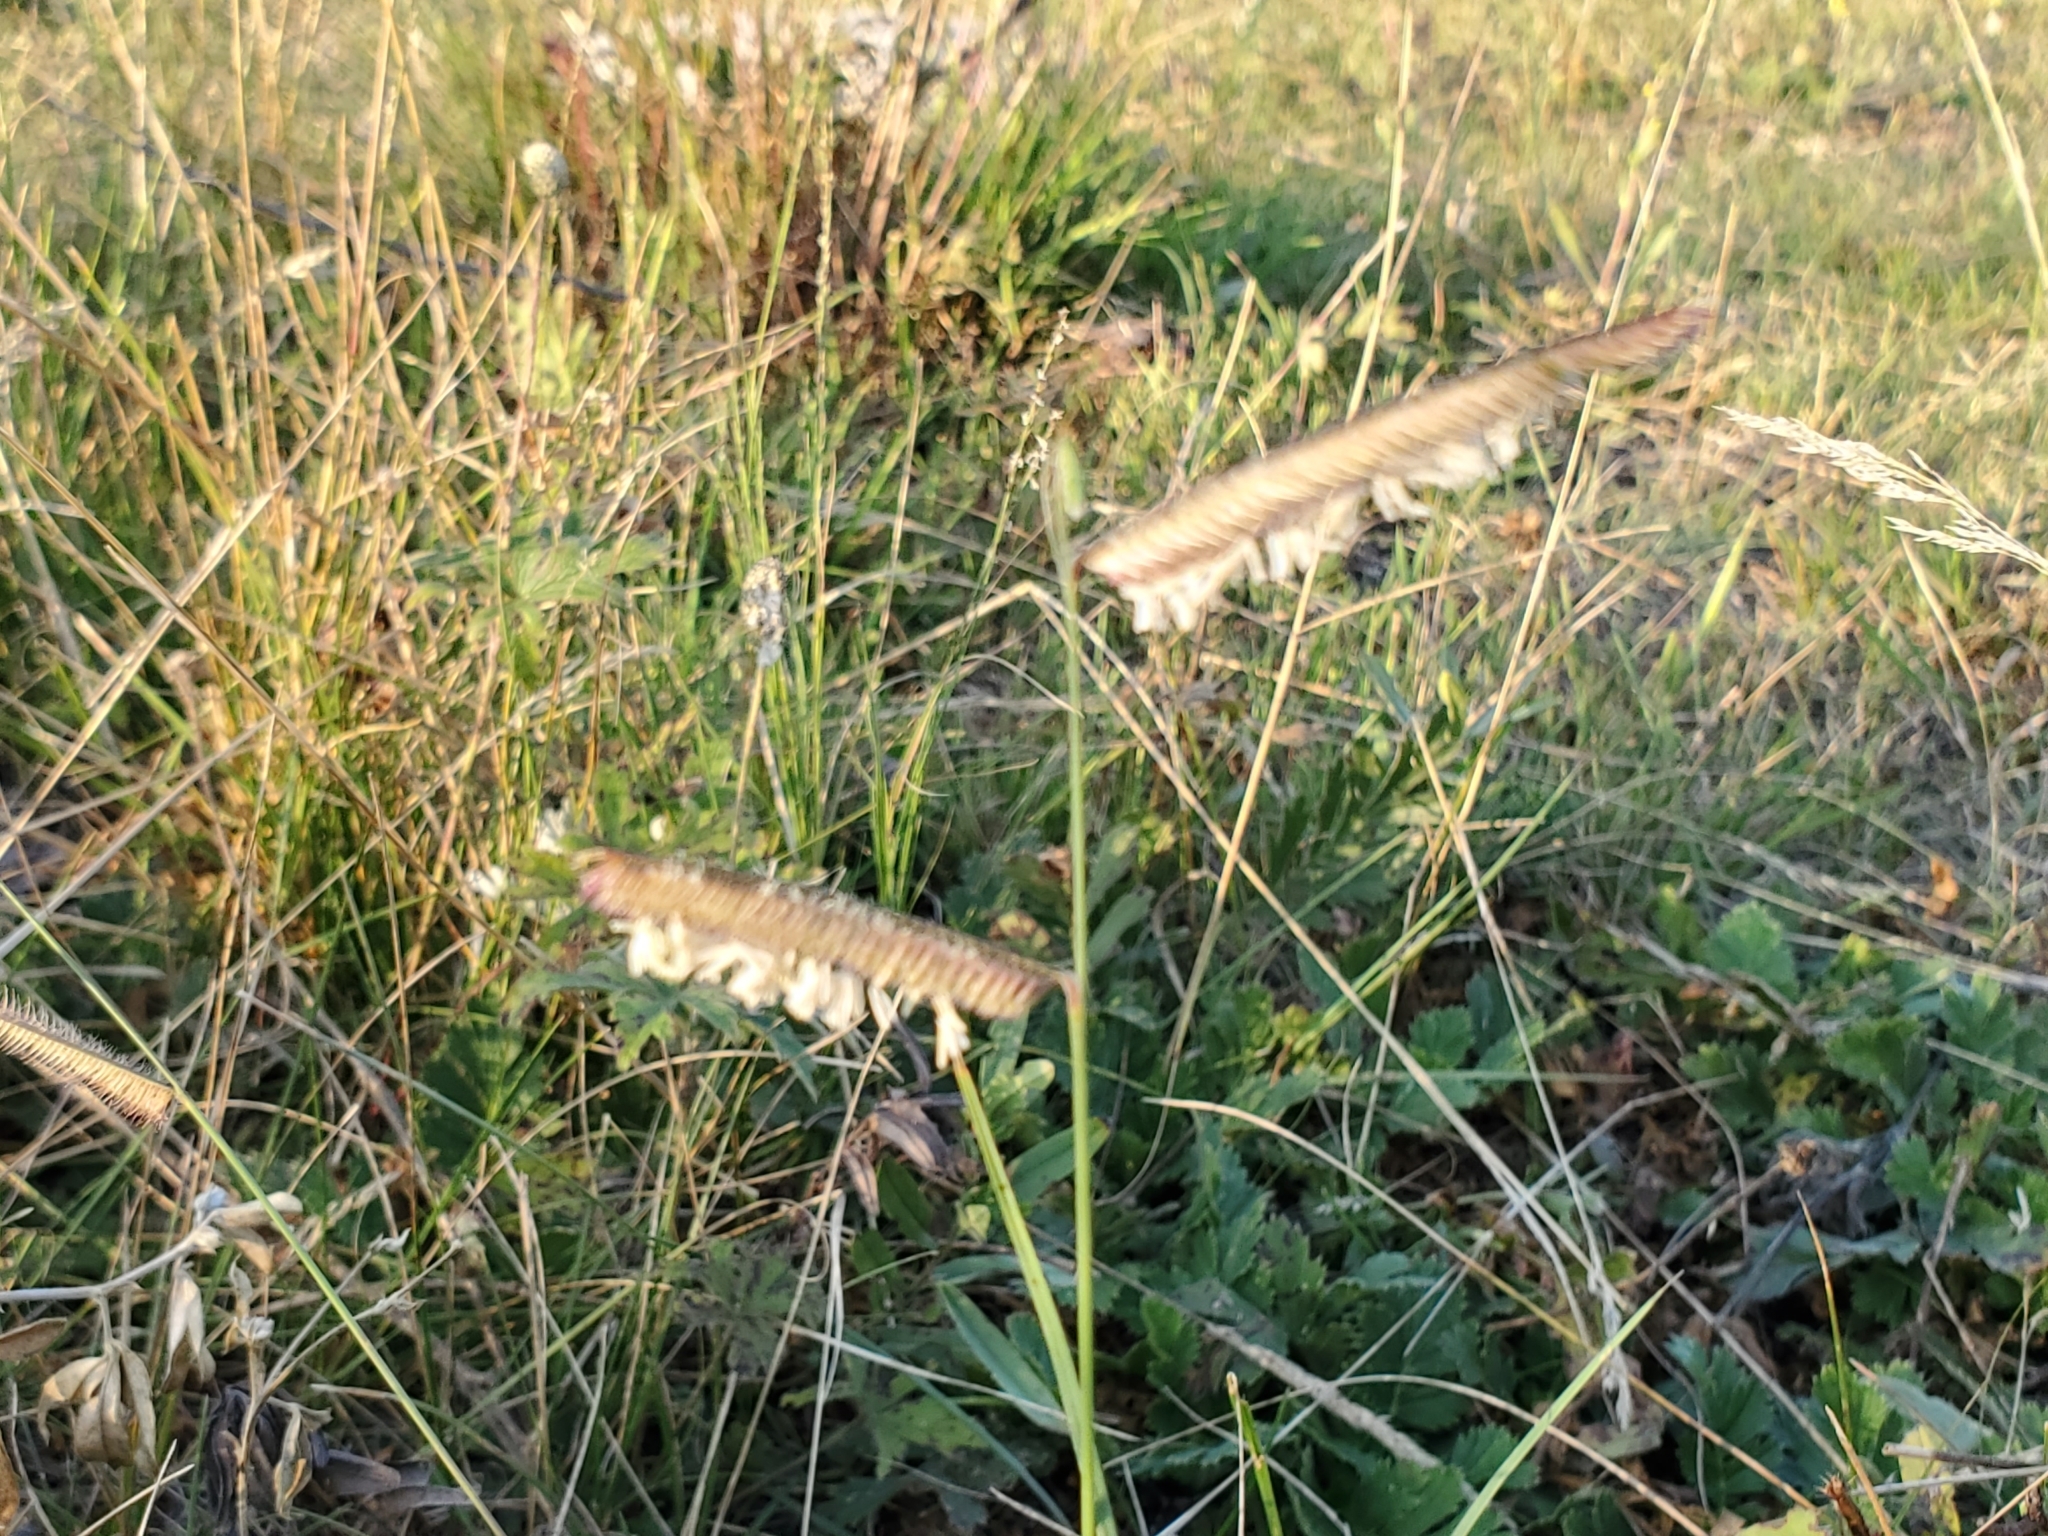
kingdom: Plantae
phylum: Tracheophyta
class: Liliopsida
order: Poales
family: Poaceae
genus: Bouteloua
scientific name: Bouteloua gracilis
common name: Blue grama
